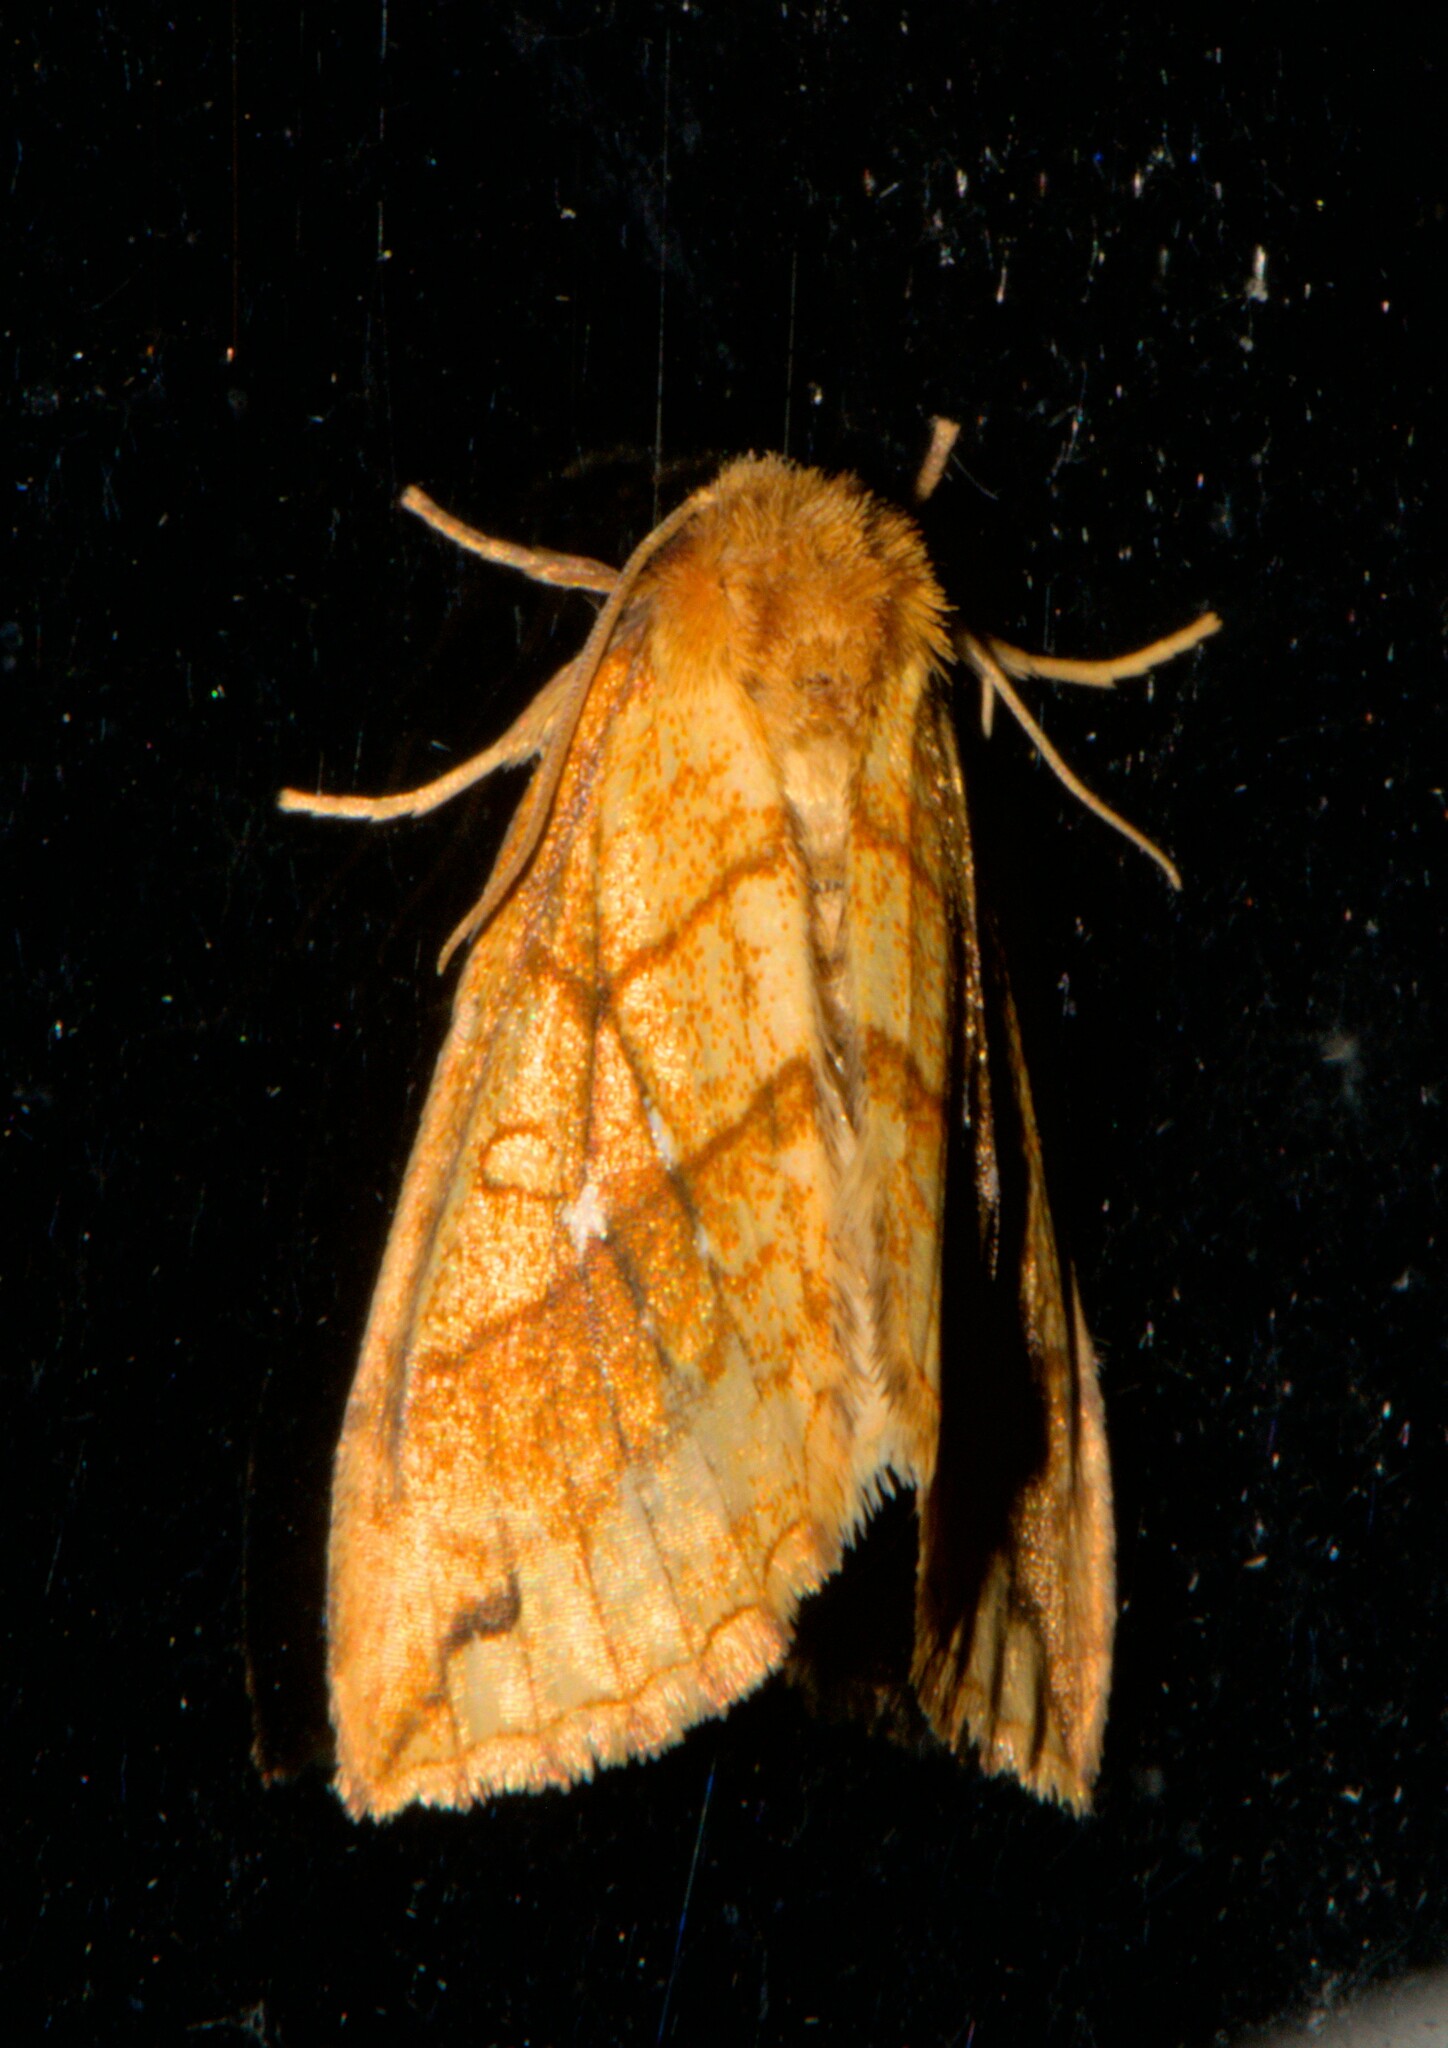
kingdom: Animalia
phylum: Arthropoda
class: Insecta
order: Lepidoptera
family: Noctuidae
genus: Xanthia
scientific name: Xanthia rectilineata
